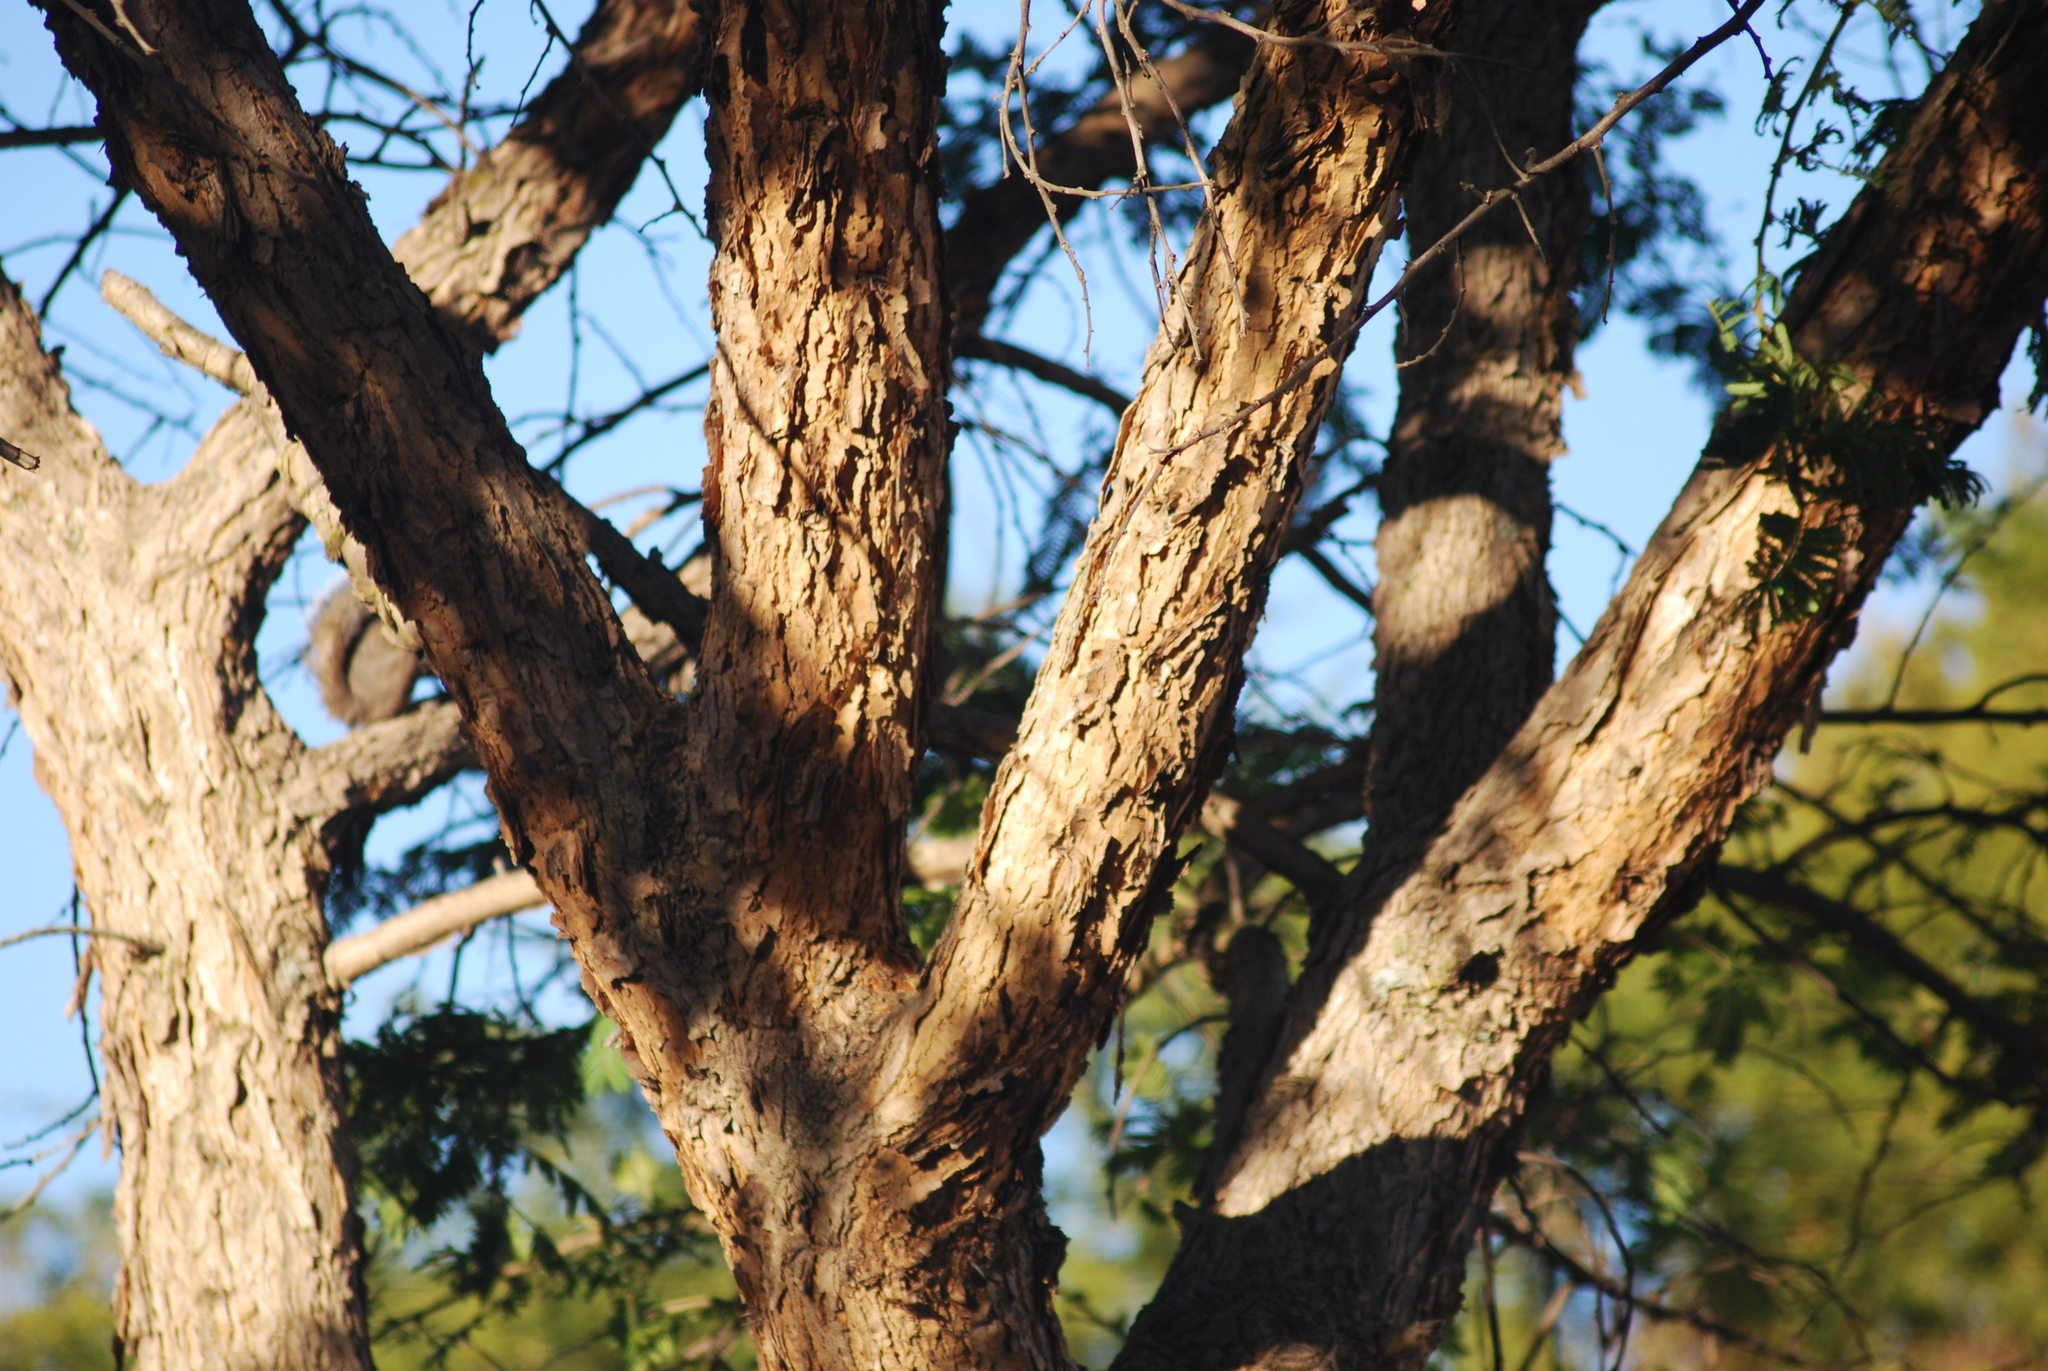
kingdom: Plantae
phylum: Tracheophyta
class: Magnoliopsida
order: Fabales
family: Fabaceae
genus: Vachellia
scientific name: Vachellia sieberiana
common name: Flat-topped thorn
